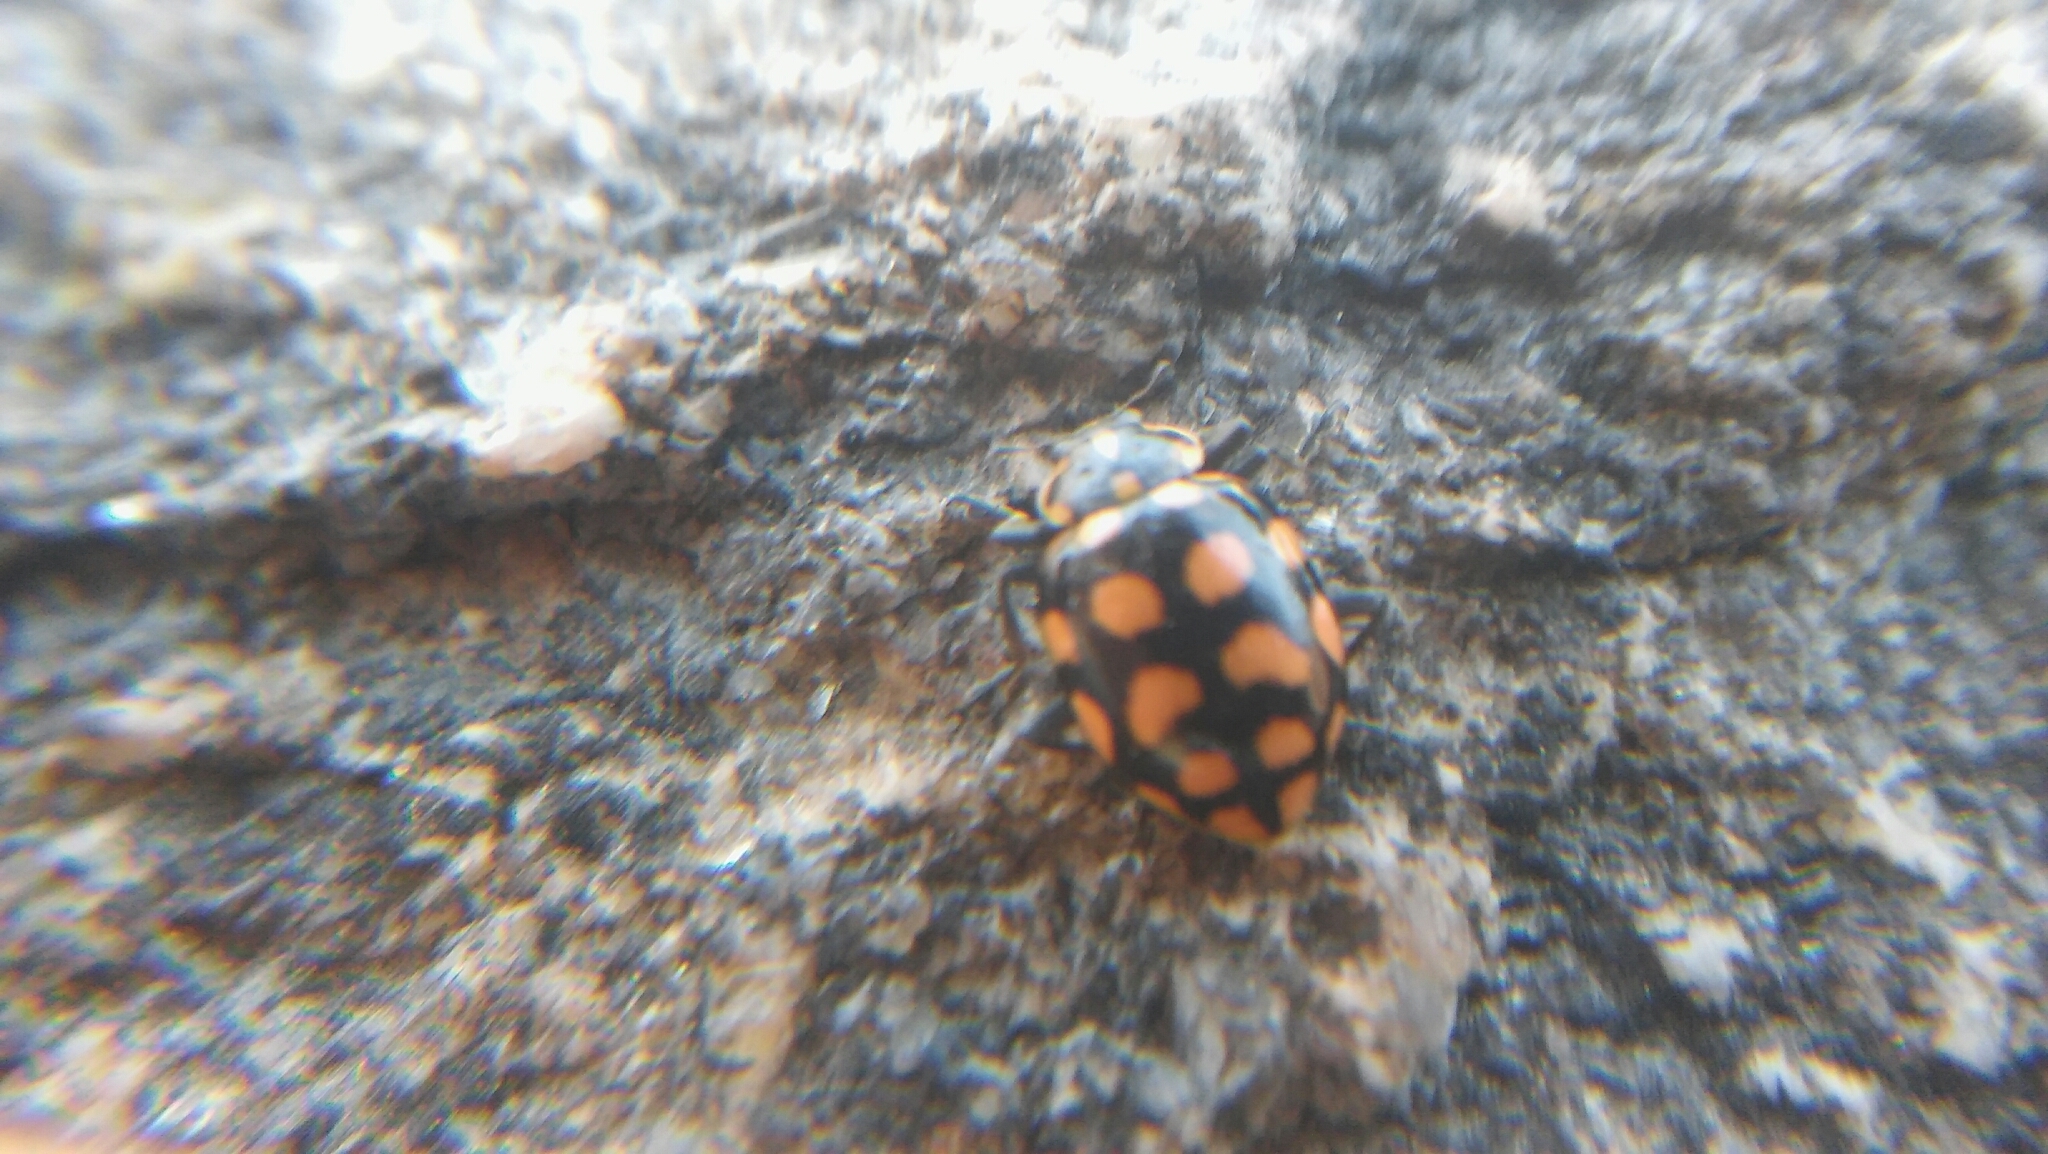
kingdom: Animalia
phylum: Arthropoda
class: Insecta
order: Coleoptera
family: Coccinellidae
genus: Coleomegilla
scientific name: Coleomegilla
